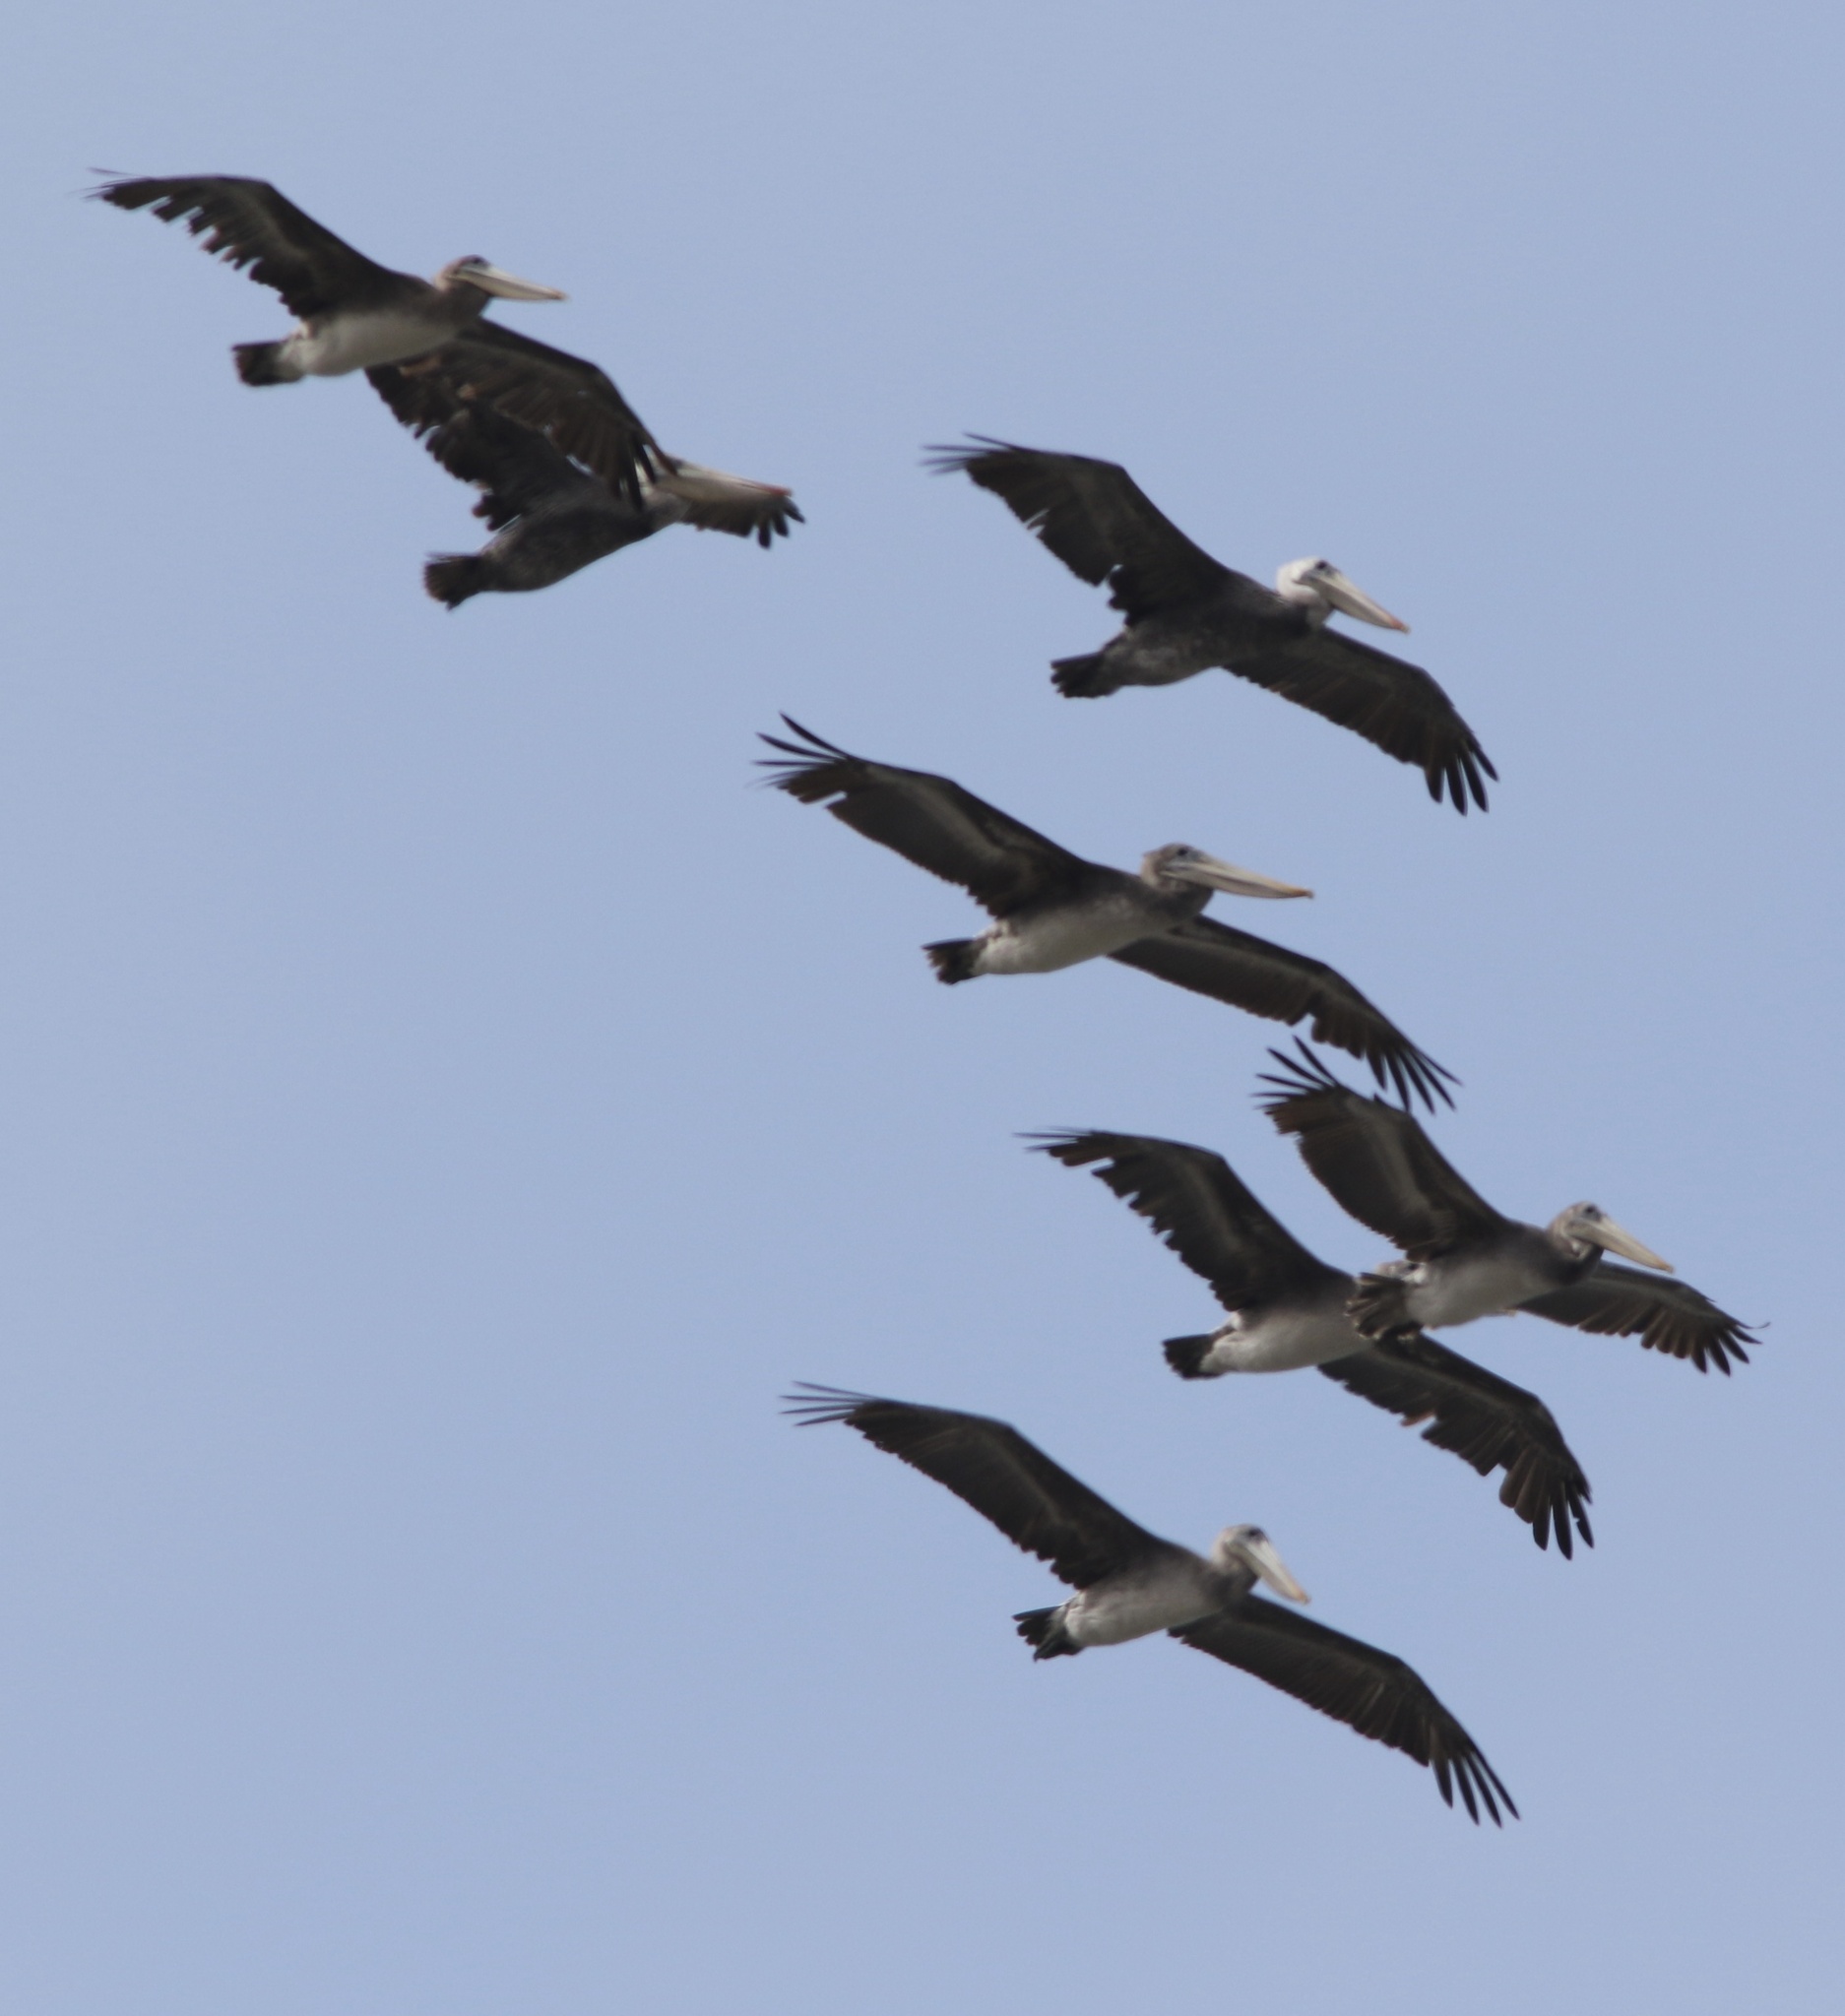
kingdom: Animalia
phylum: Chordata
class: Aves
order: Pelecaniformes
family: Pelecanidae
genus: Pelecanus
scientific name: Pelecanus occidentalis
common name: Brown pelican
